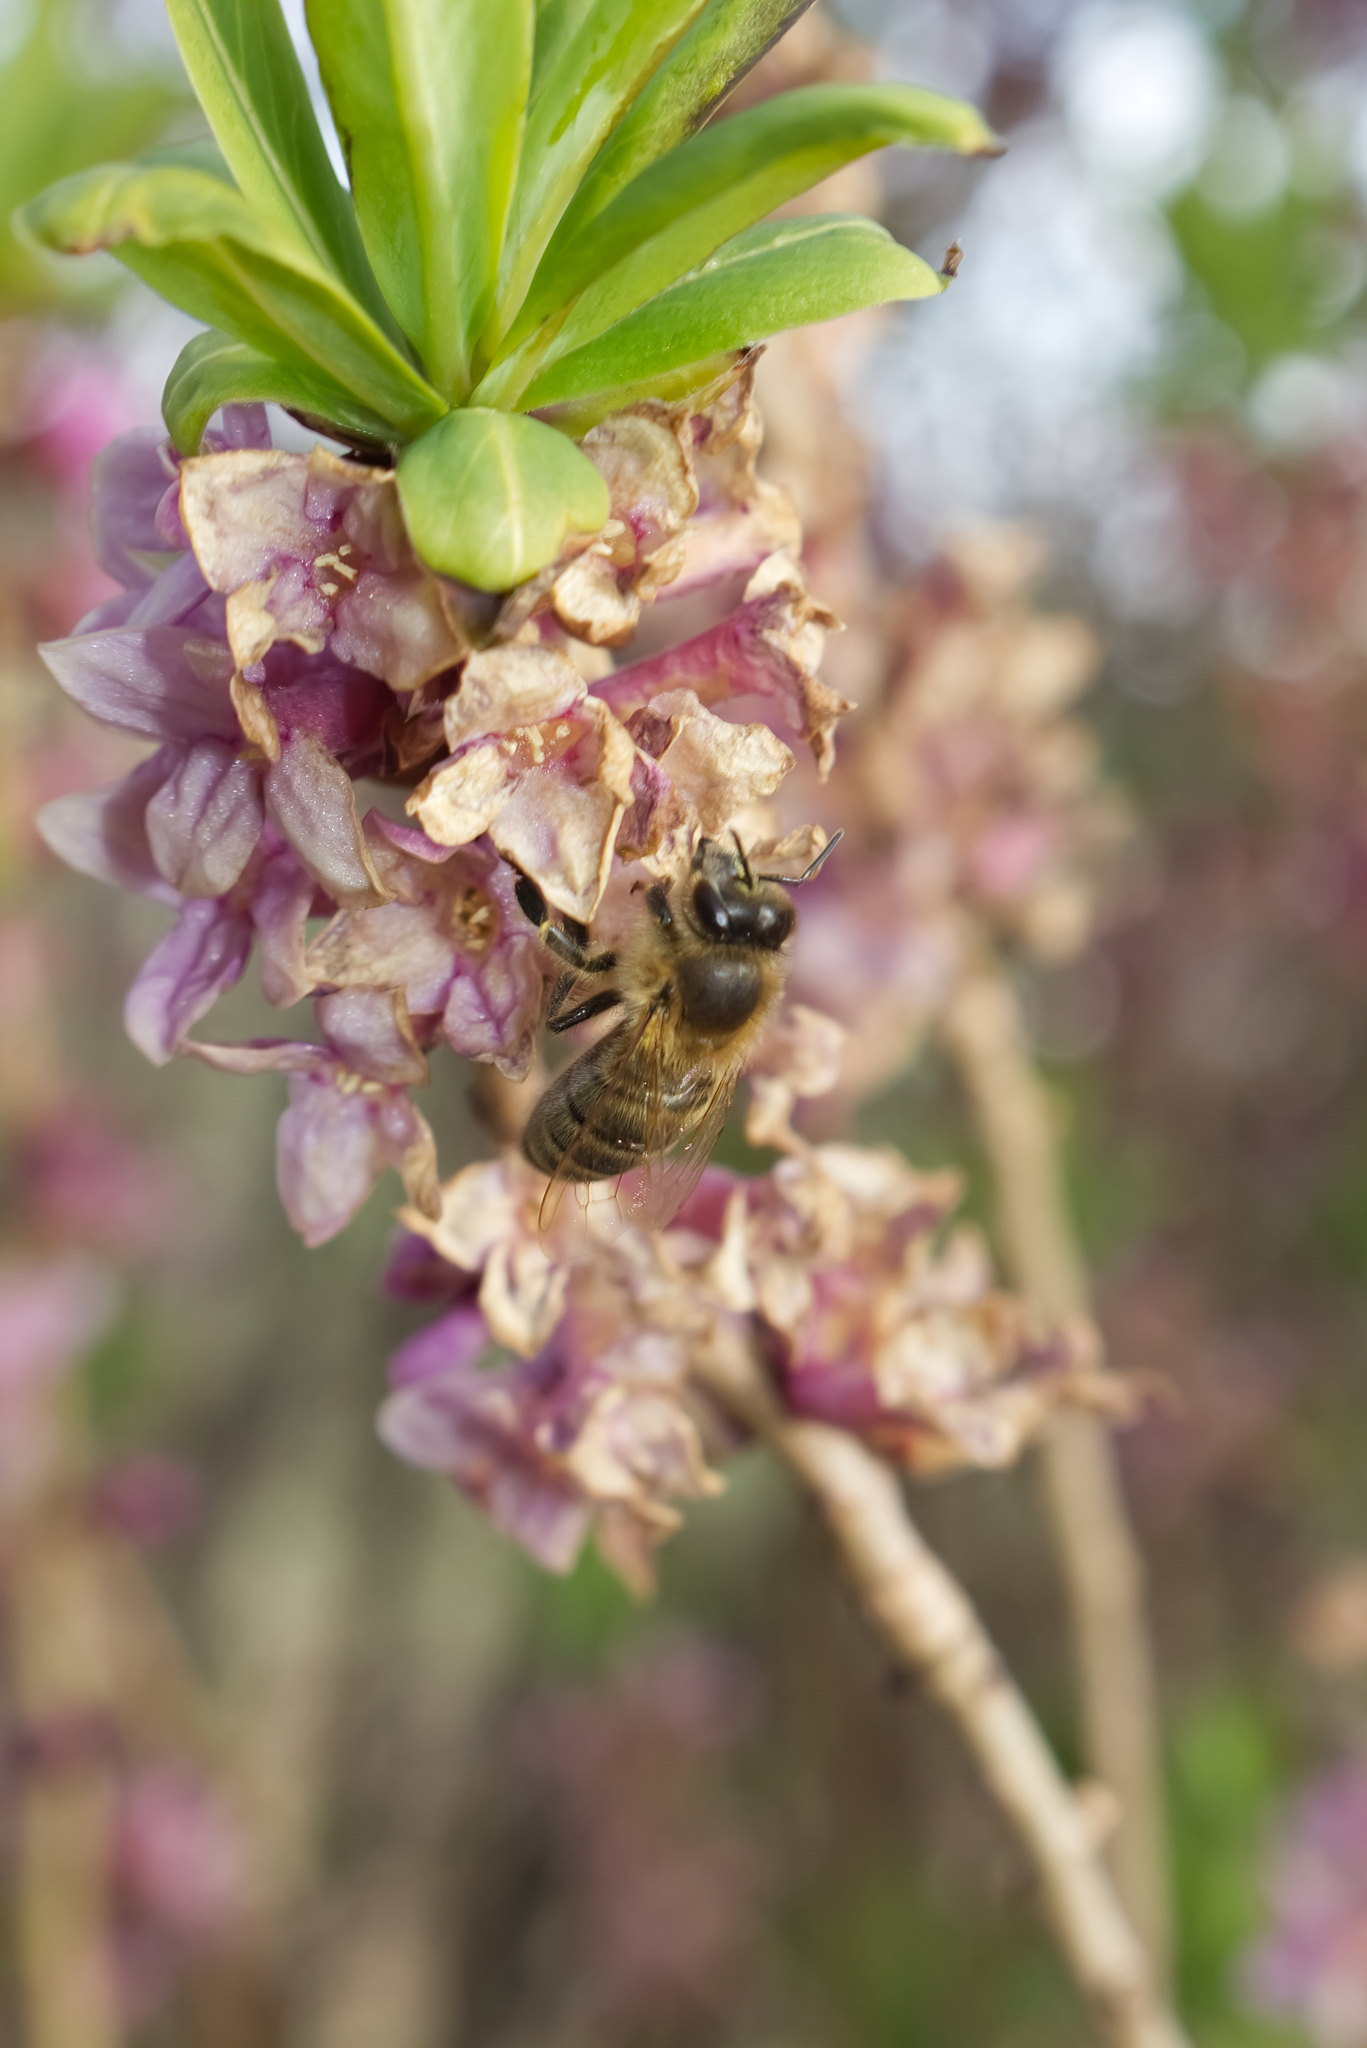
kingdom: Animalia
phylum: Arthropoda
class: Insecta
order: Hymenoptera
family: Apidae
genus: Apis
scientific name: Apis mellifera
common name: Honey bee
